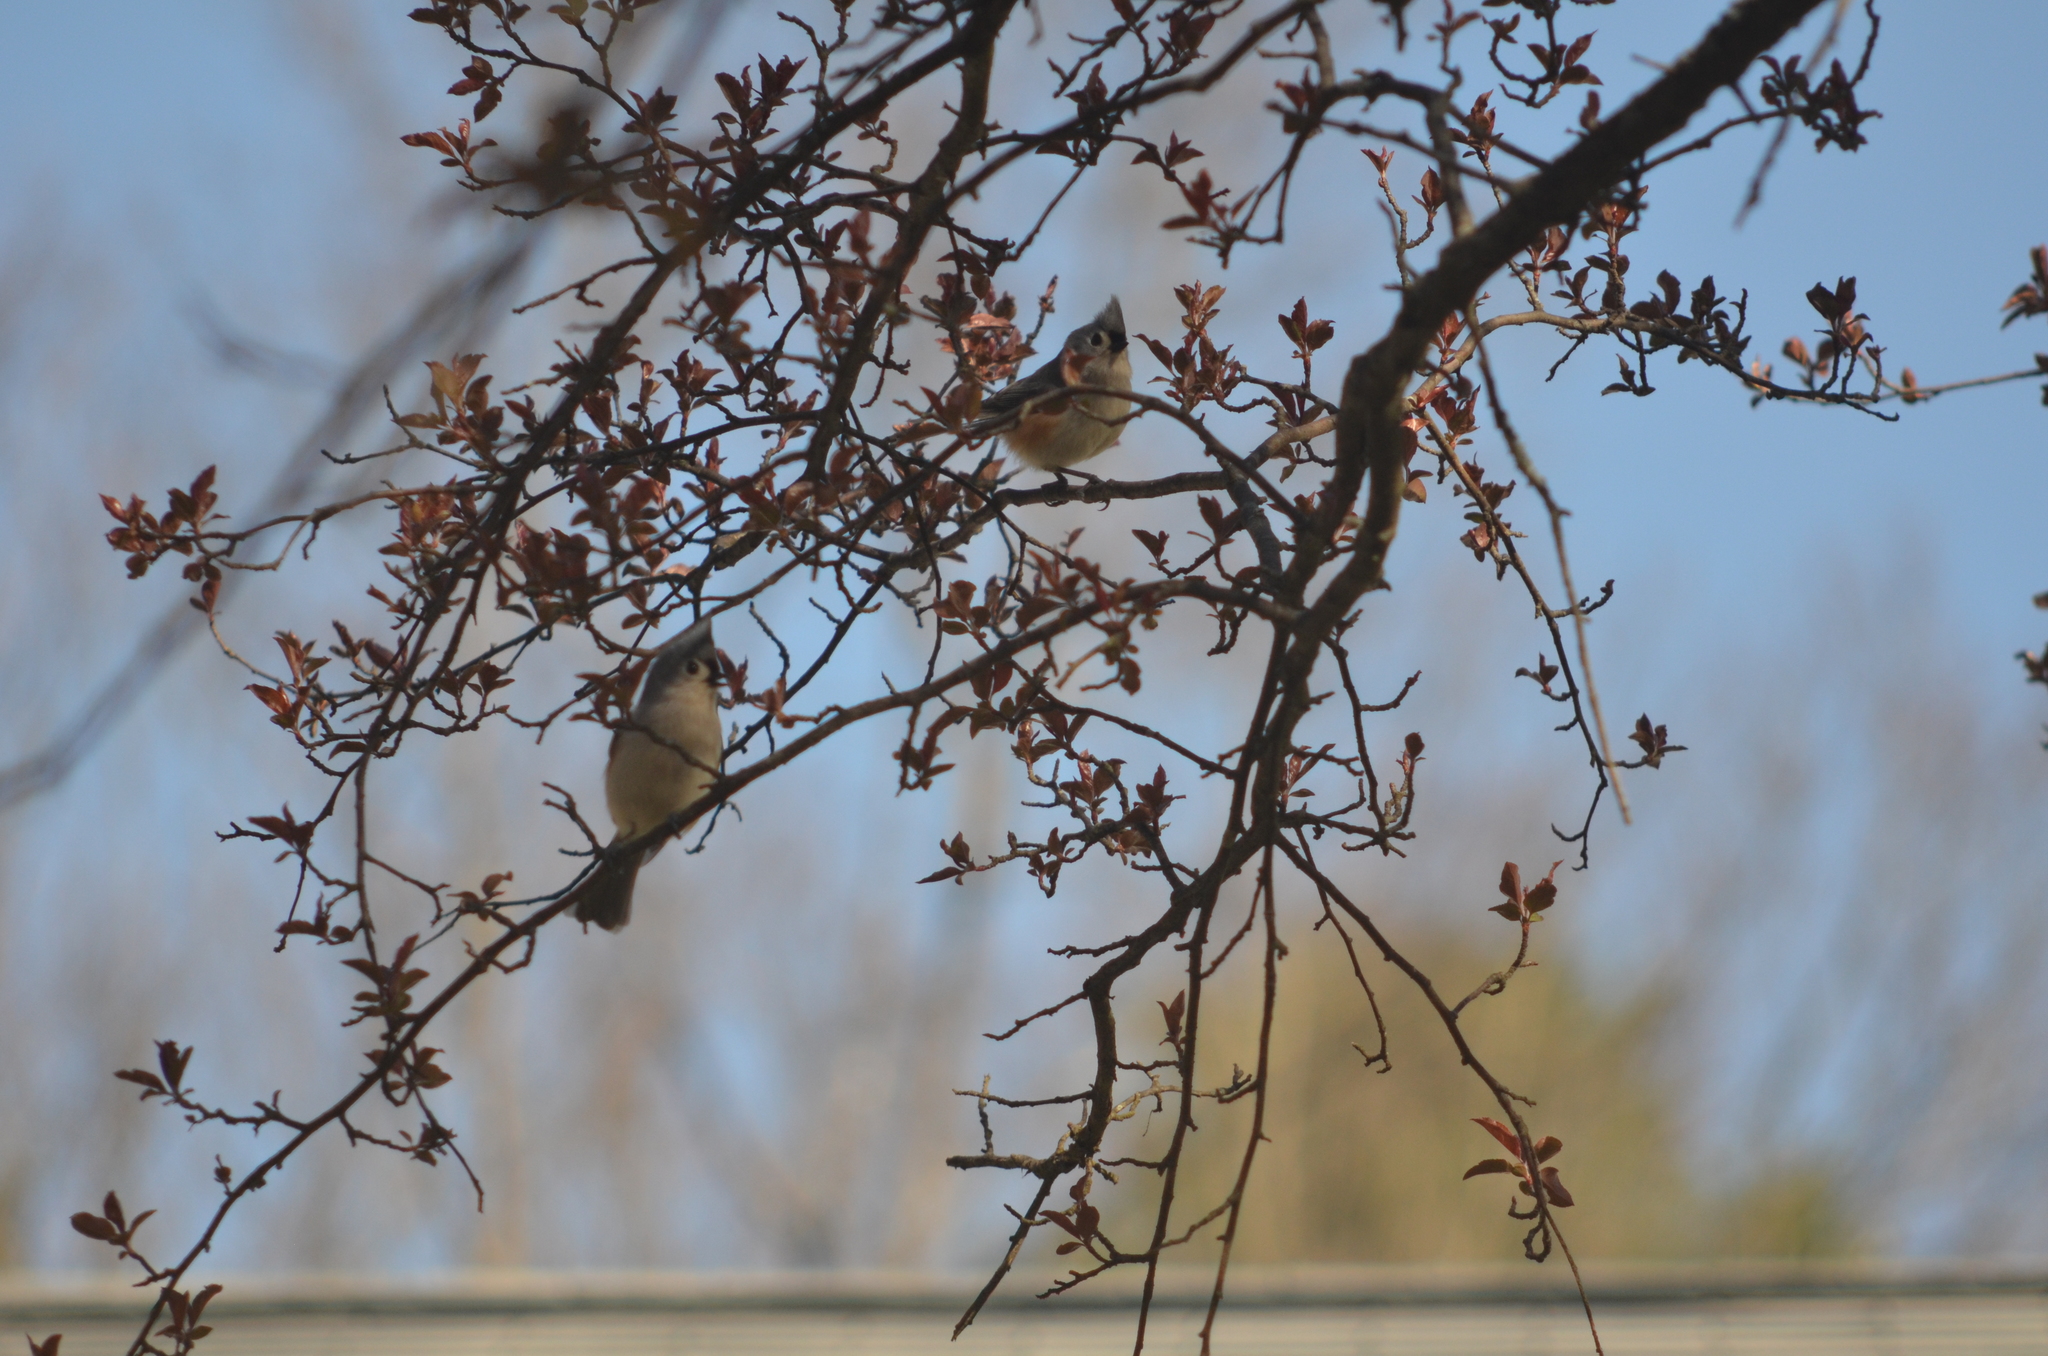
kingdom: Animalia
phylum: Chordata
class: Aves
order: Passeriformes
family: Paridae
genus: Baeolophus
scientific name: Baeolophus bicolor
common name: Tufted titmouse
